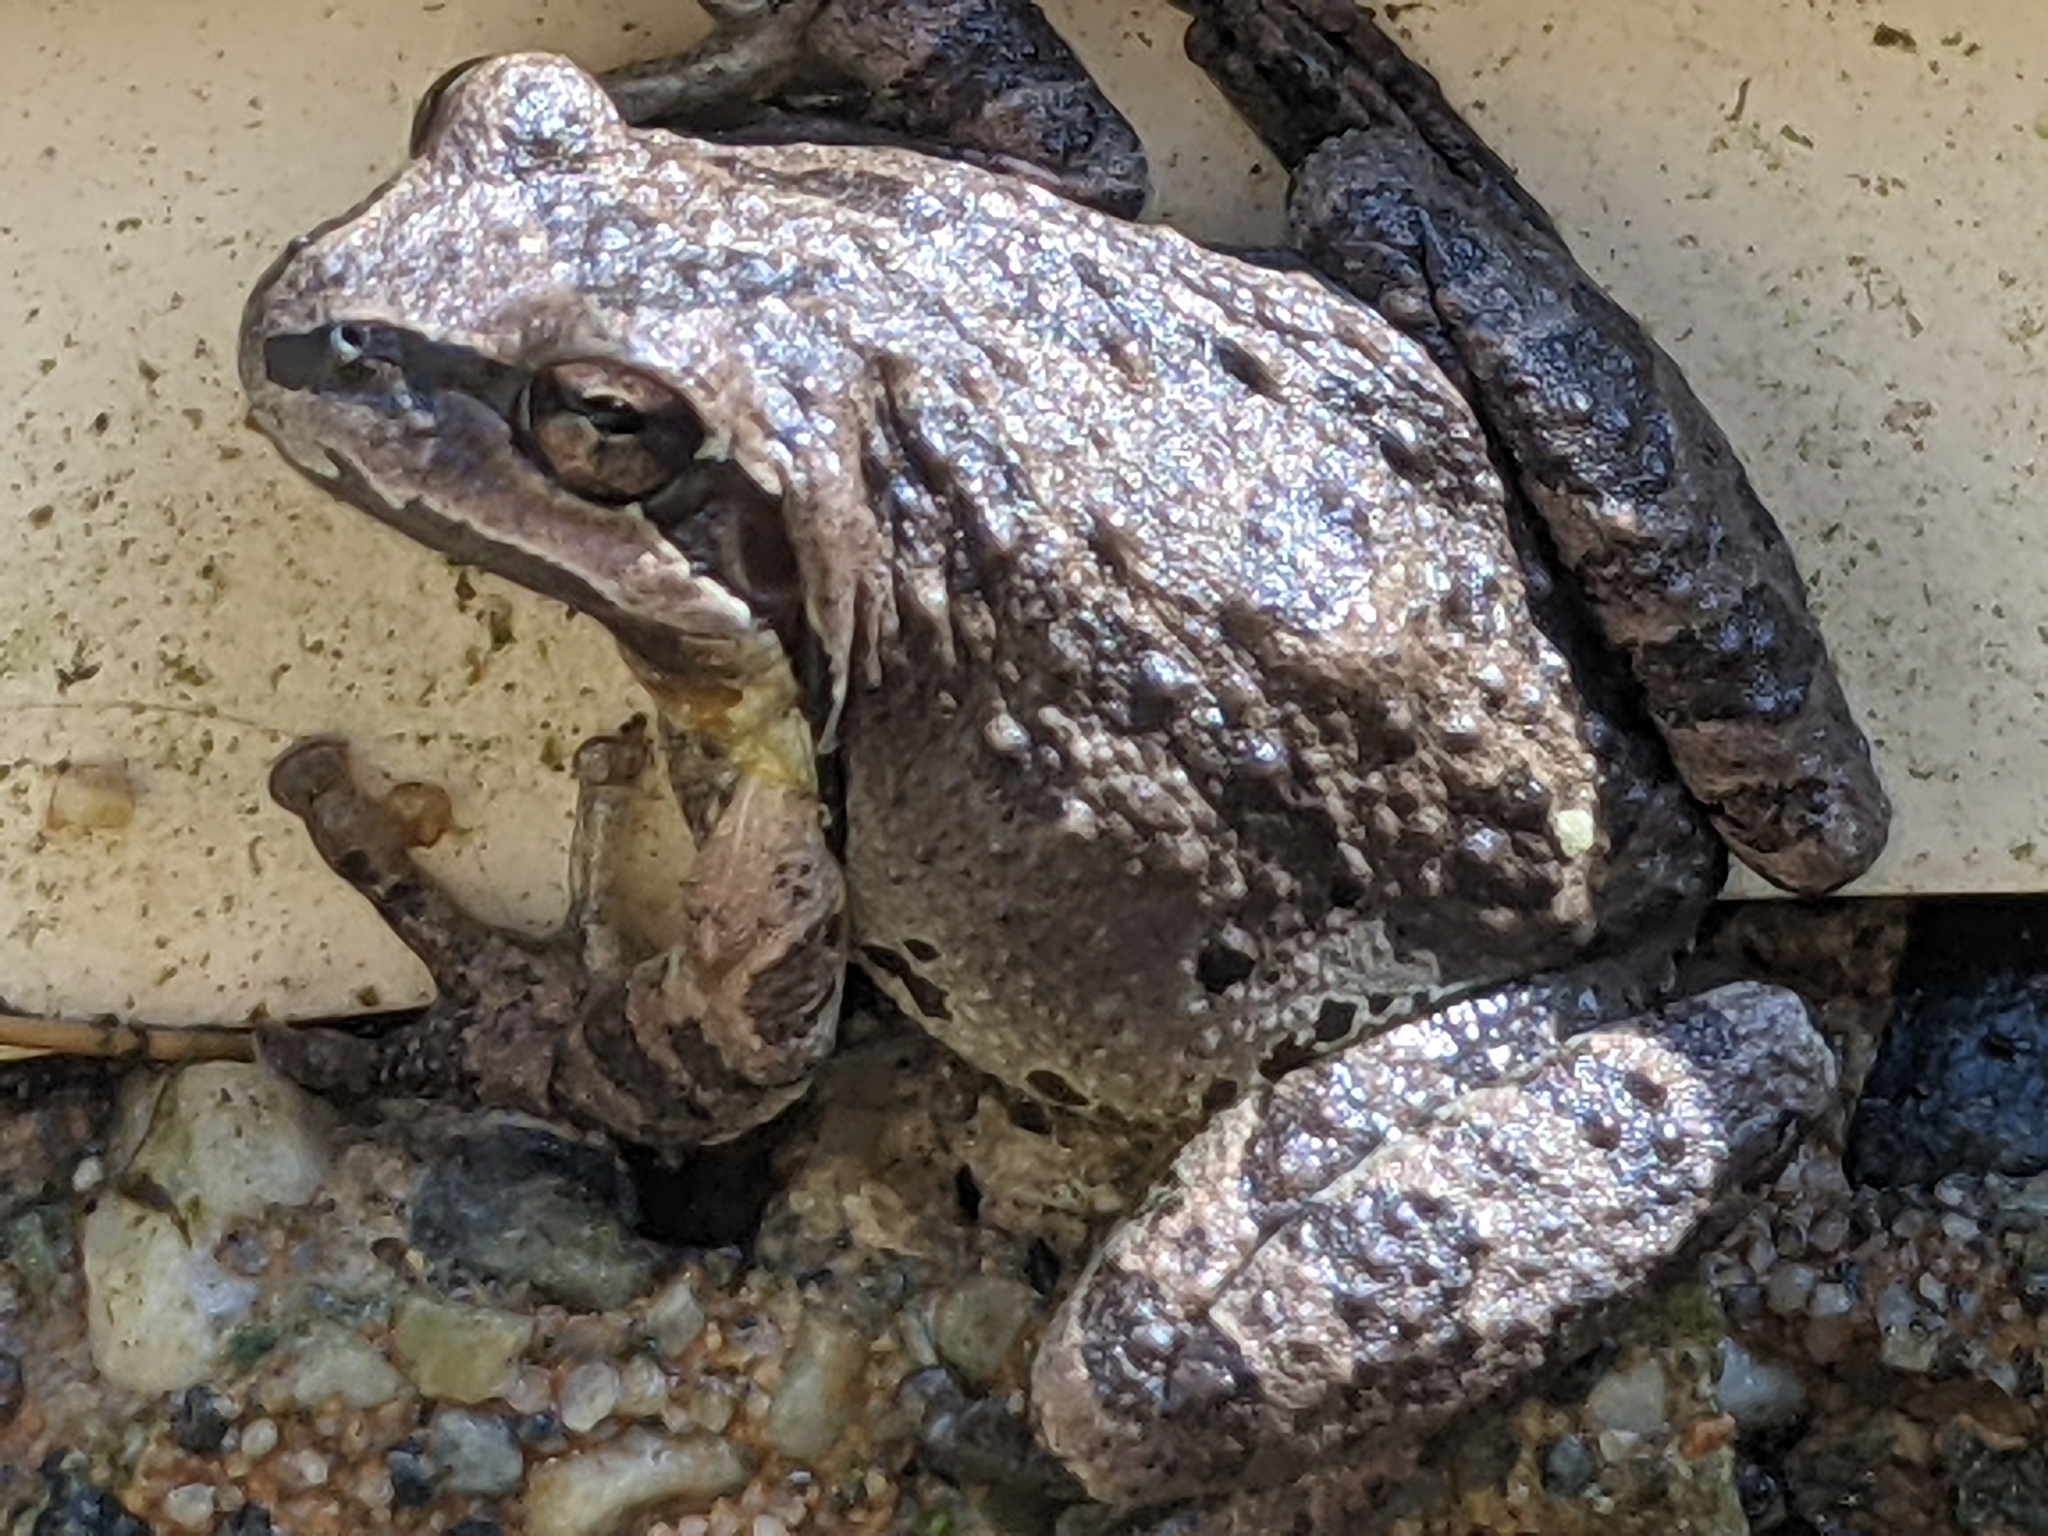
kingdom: Animalia
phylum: Chordata
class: Amphibia
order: Anura
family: Hylidae
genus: Pseudacris
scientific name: Pseudacris regilla
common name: Pacific chorus frog
